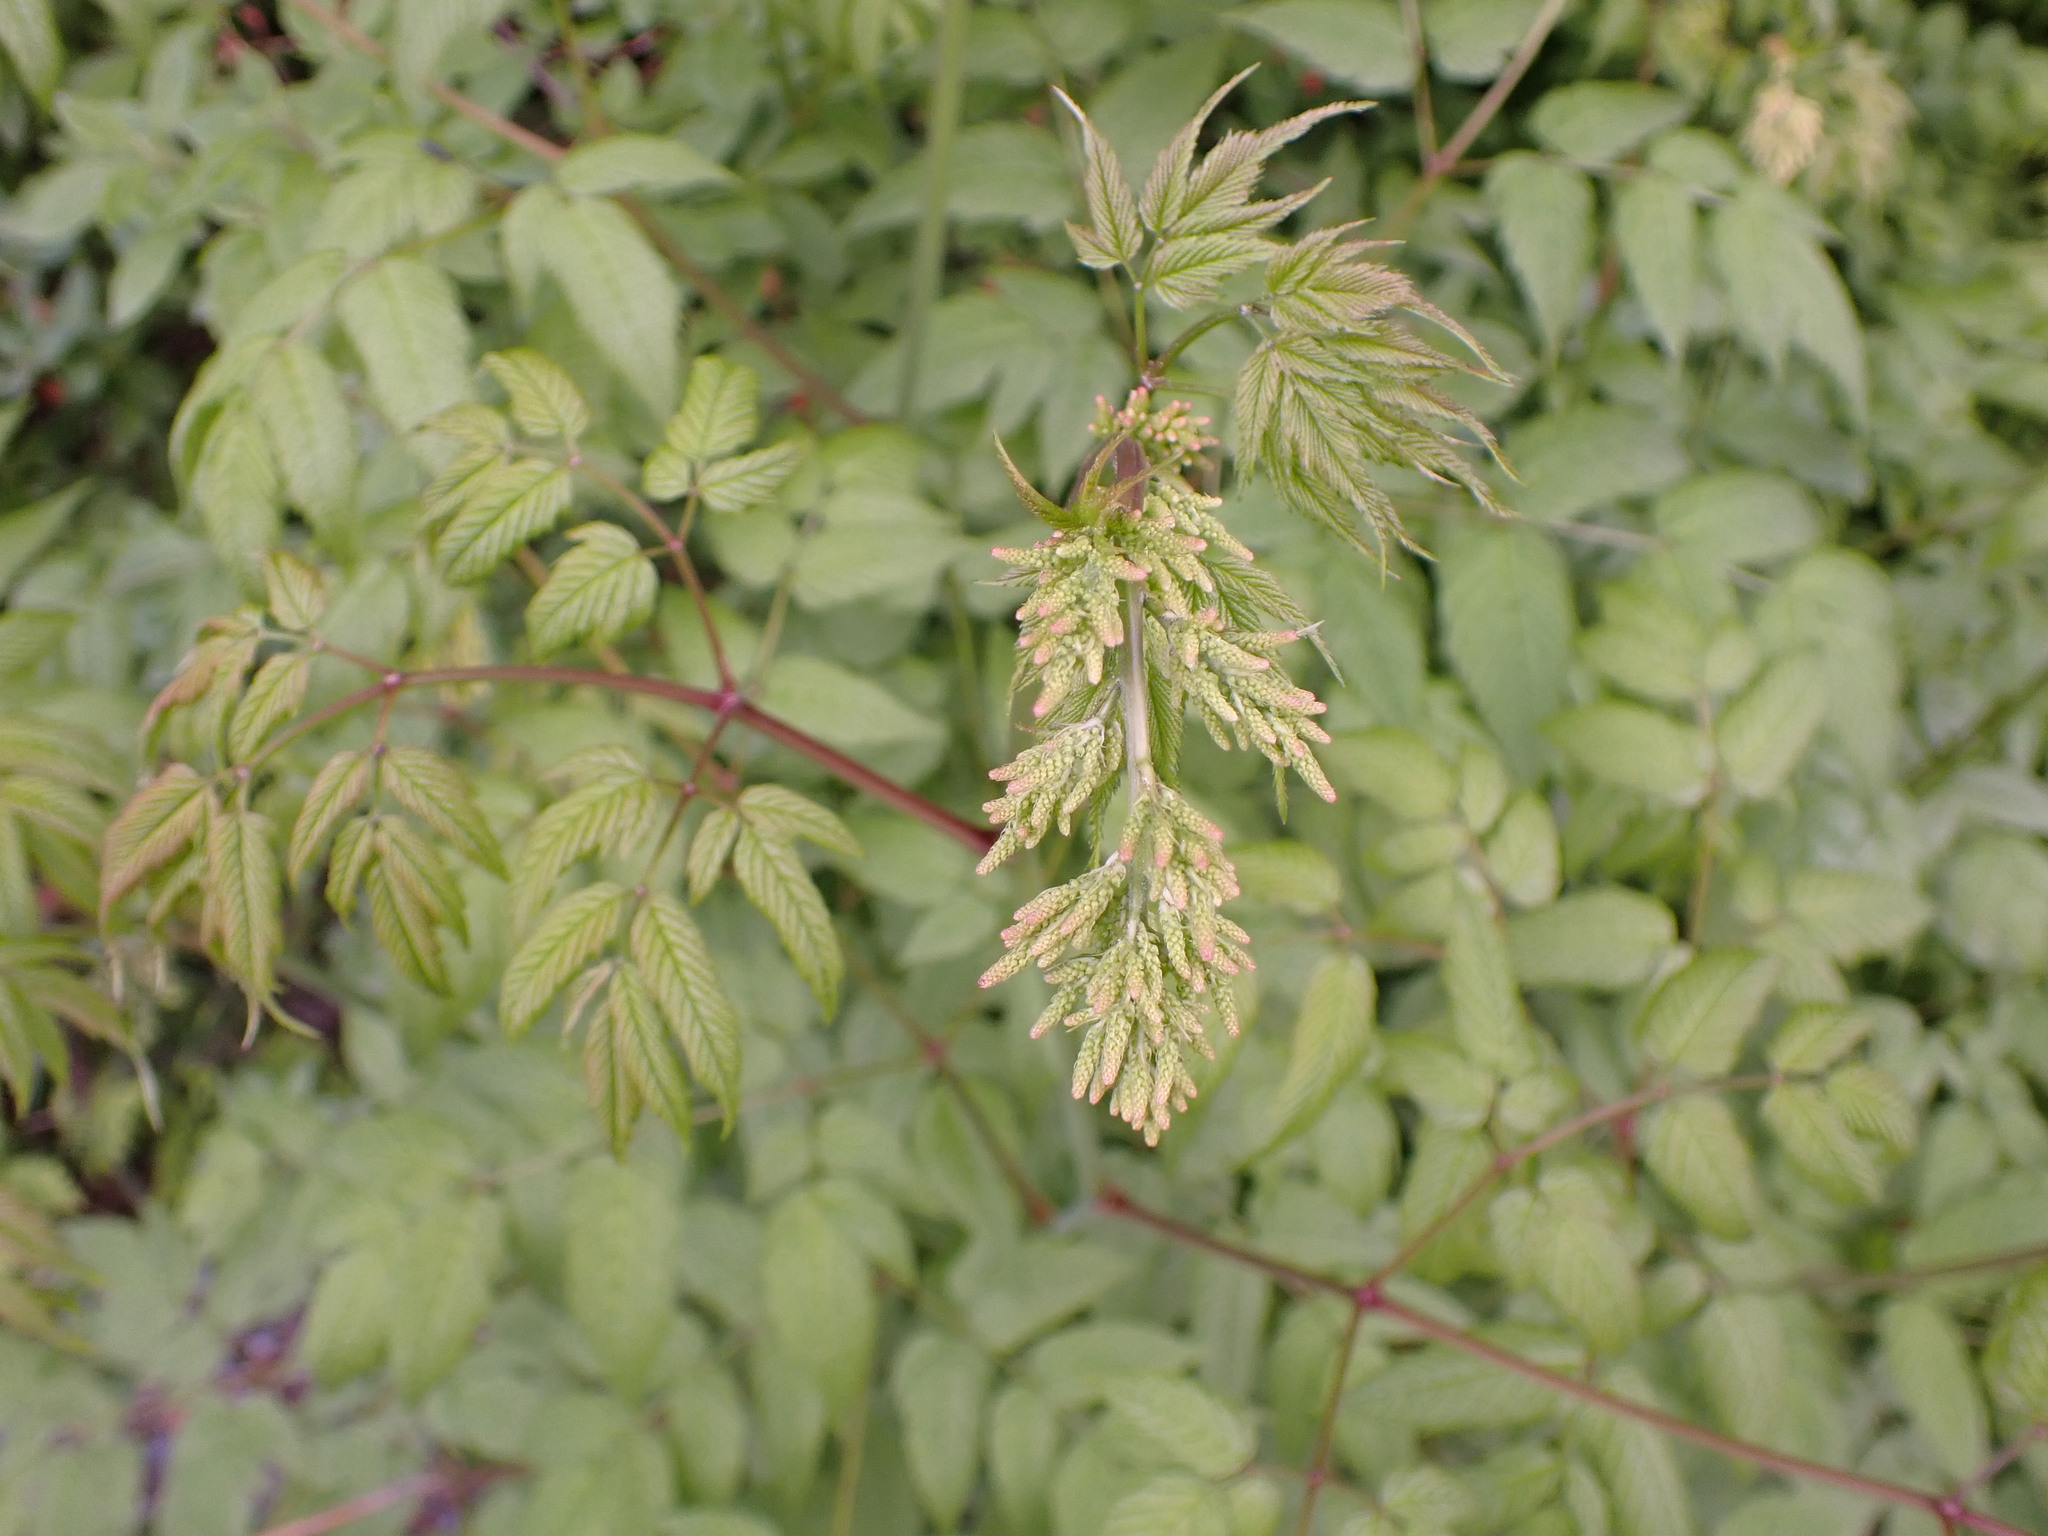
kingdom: Plantae
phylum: Tracheophyta
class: Magnoliopsida
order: Rosales
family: Rosaceae
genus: Aruncus
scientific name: Aruncus dioicus
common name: Buck's-beard
